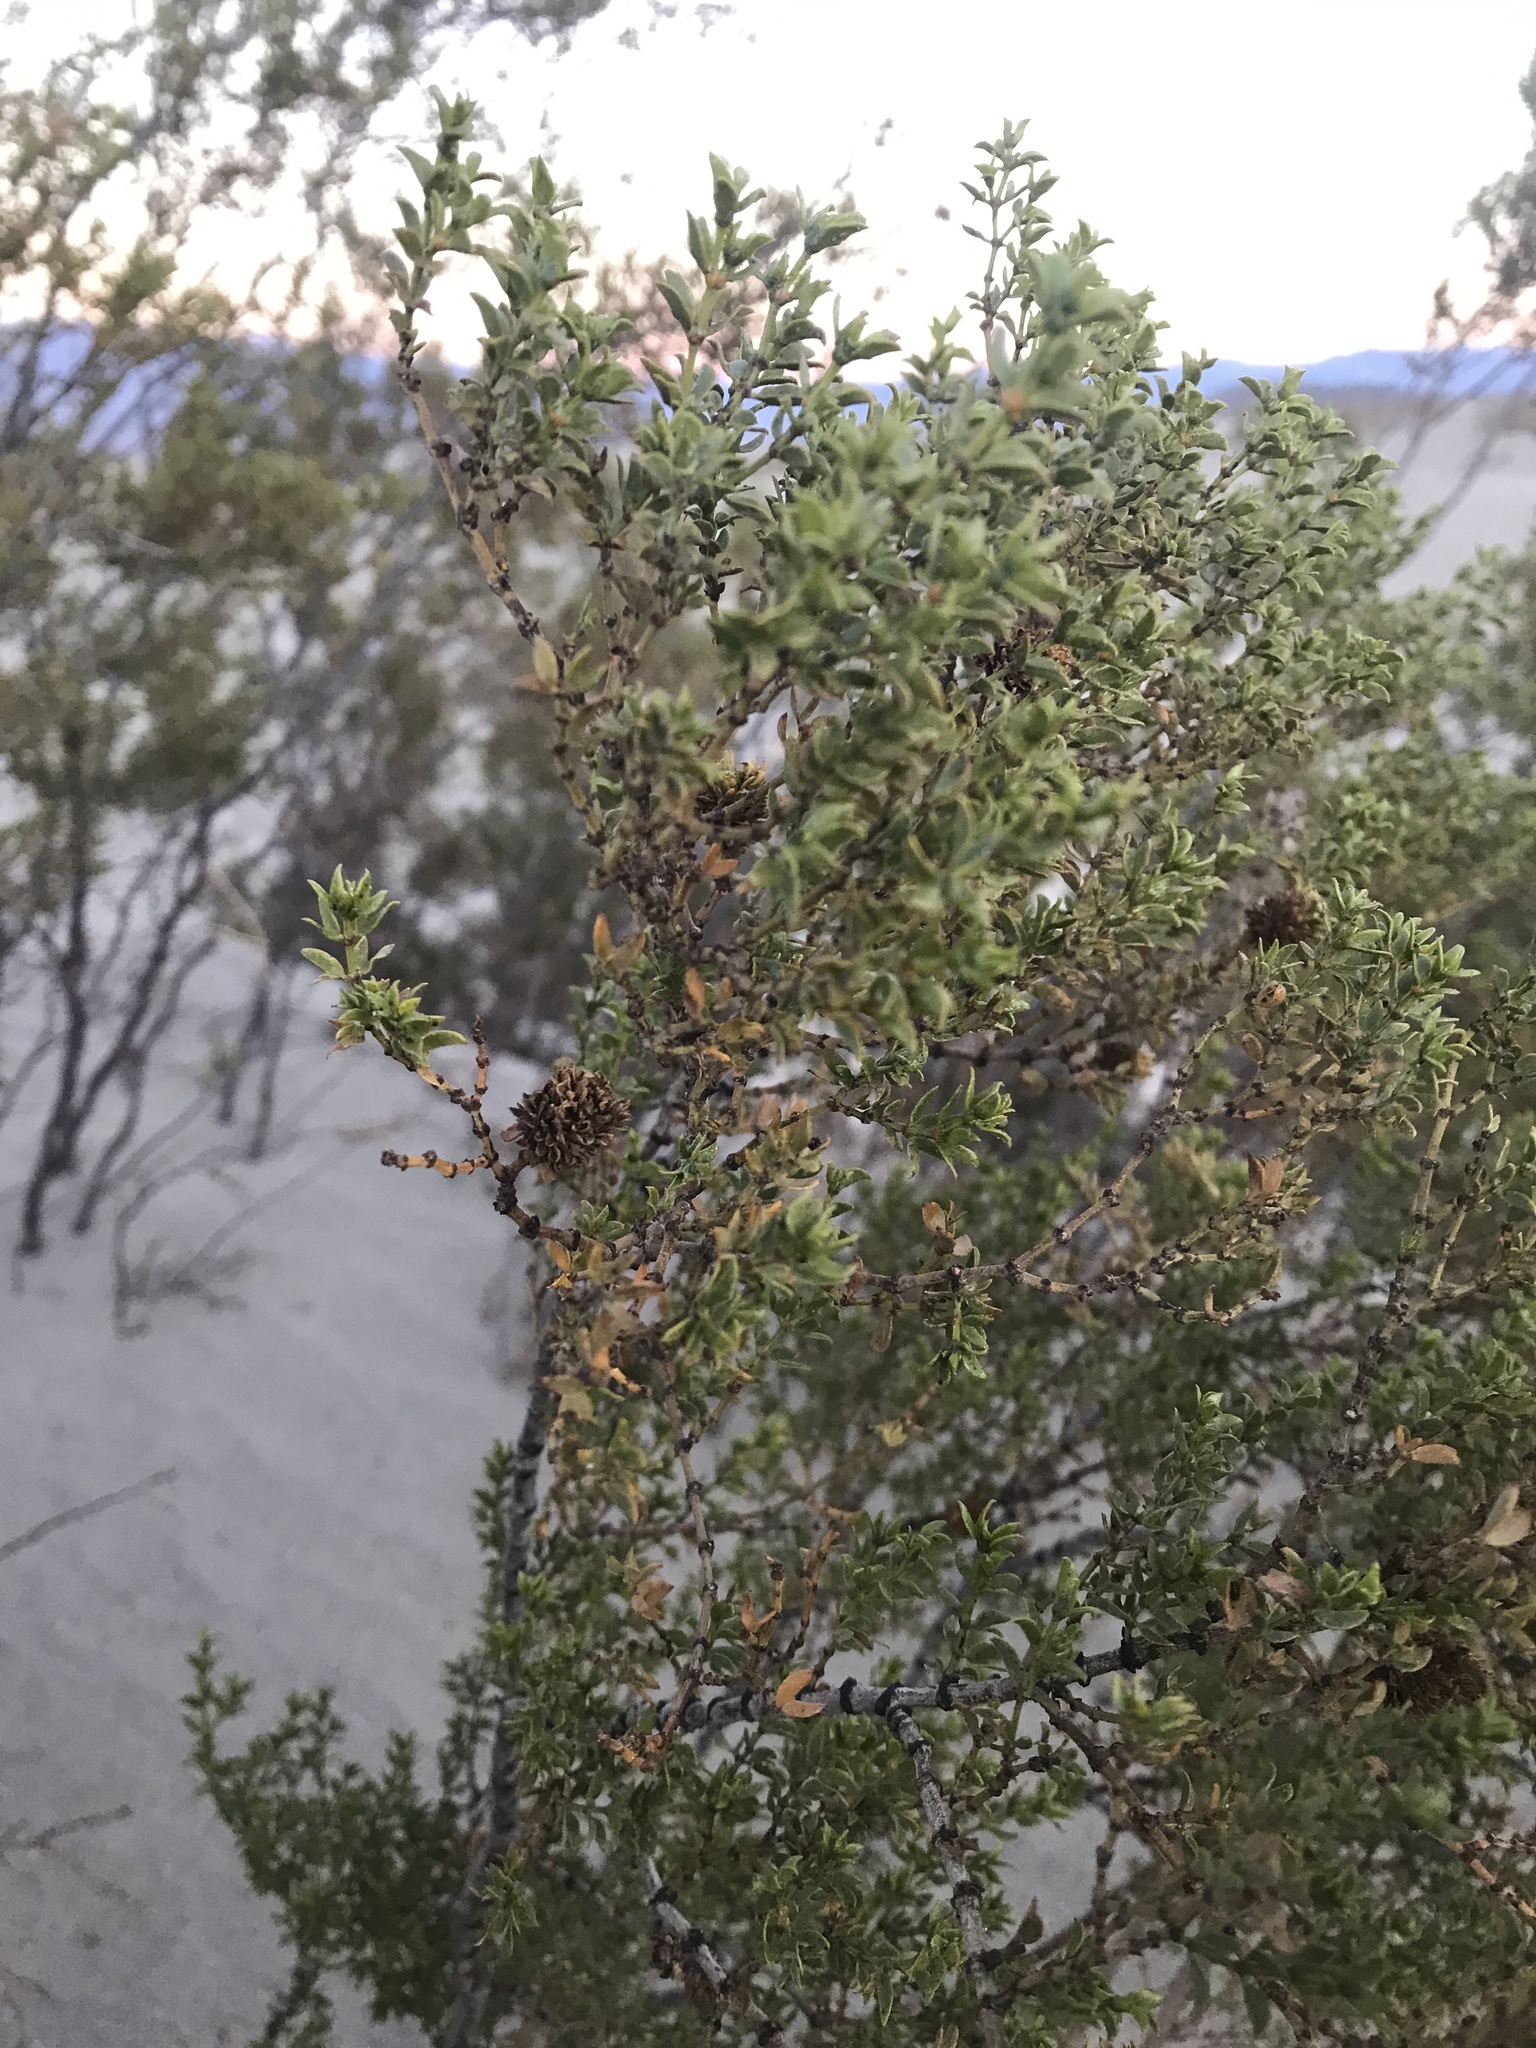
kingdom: Plantae
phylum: Tracheophyta
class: Magnoliopsida
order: Zygophyllales
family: Zygophyllaceae
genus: Larrea
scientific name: Larrea tridentata
